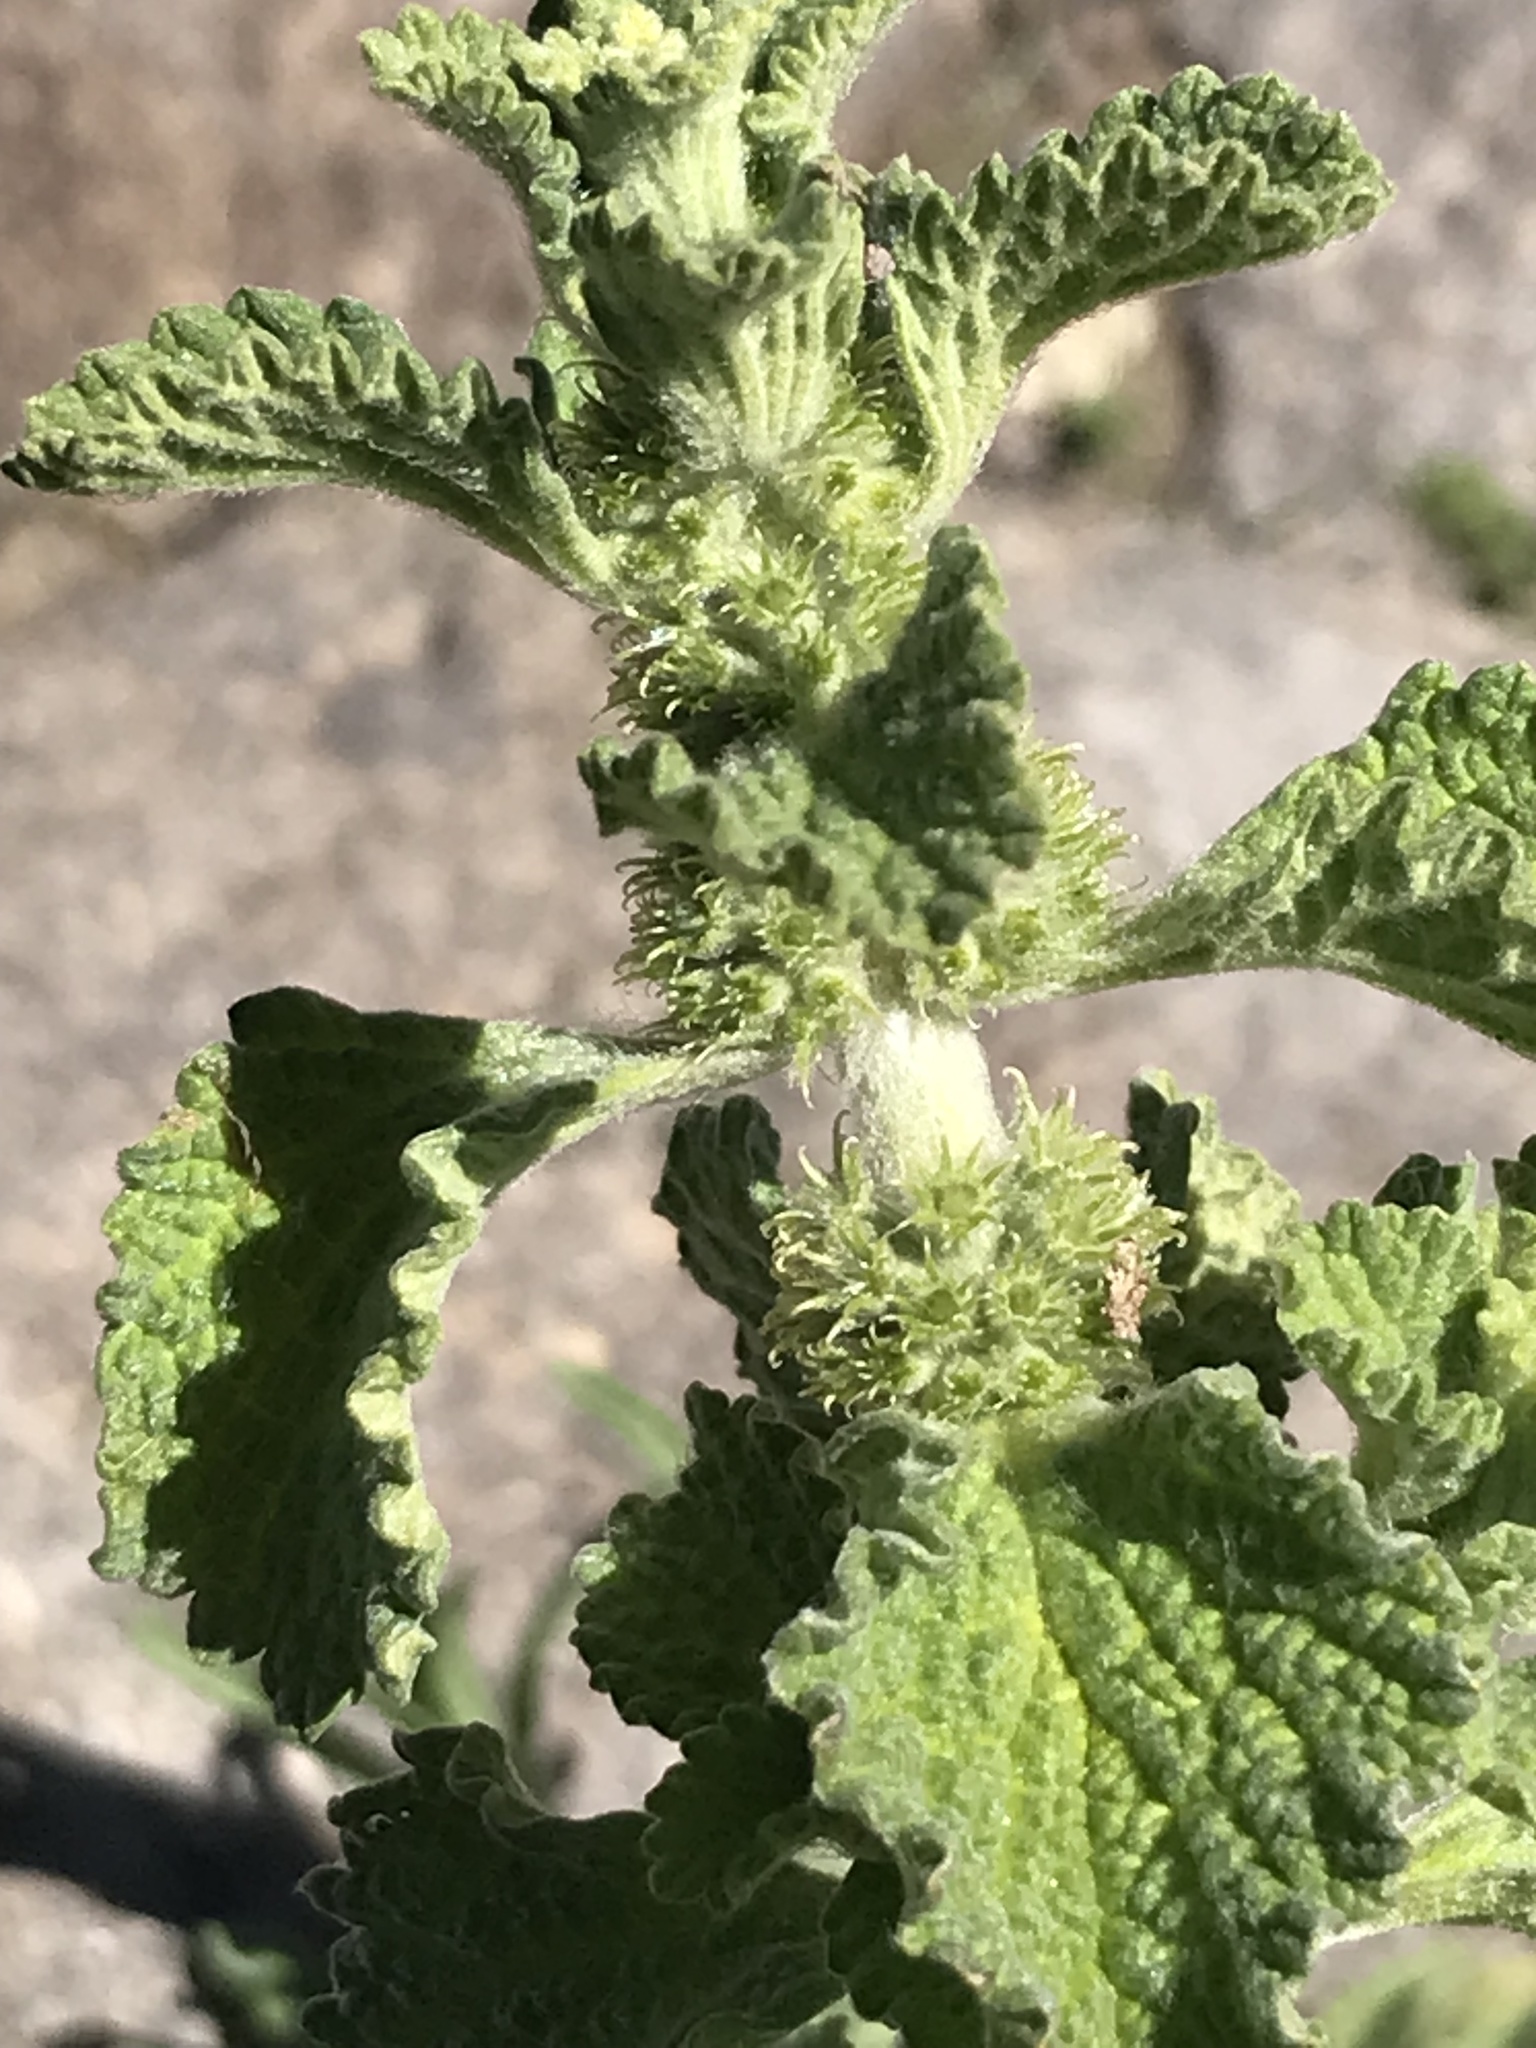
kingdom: Plantae
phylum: Tracheophyta
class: Magnoliopsida
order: Lamiales
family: Lamiaceae
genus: Marrubium
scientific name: Marrubium vulgare
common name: Horehound
